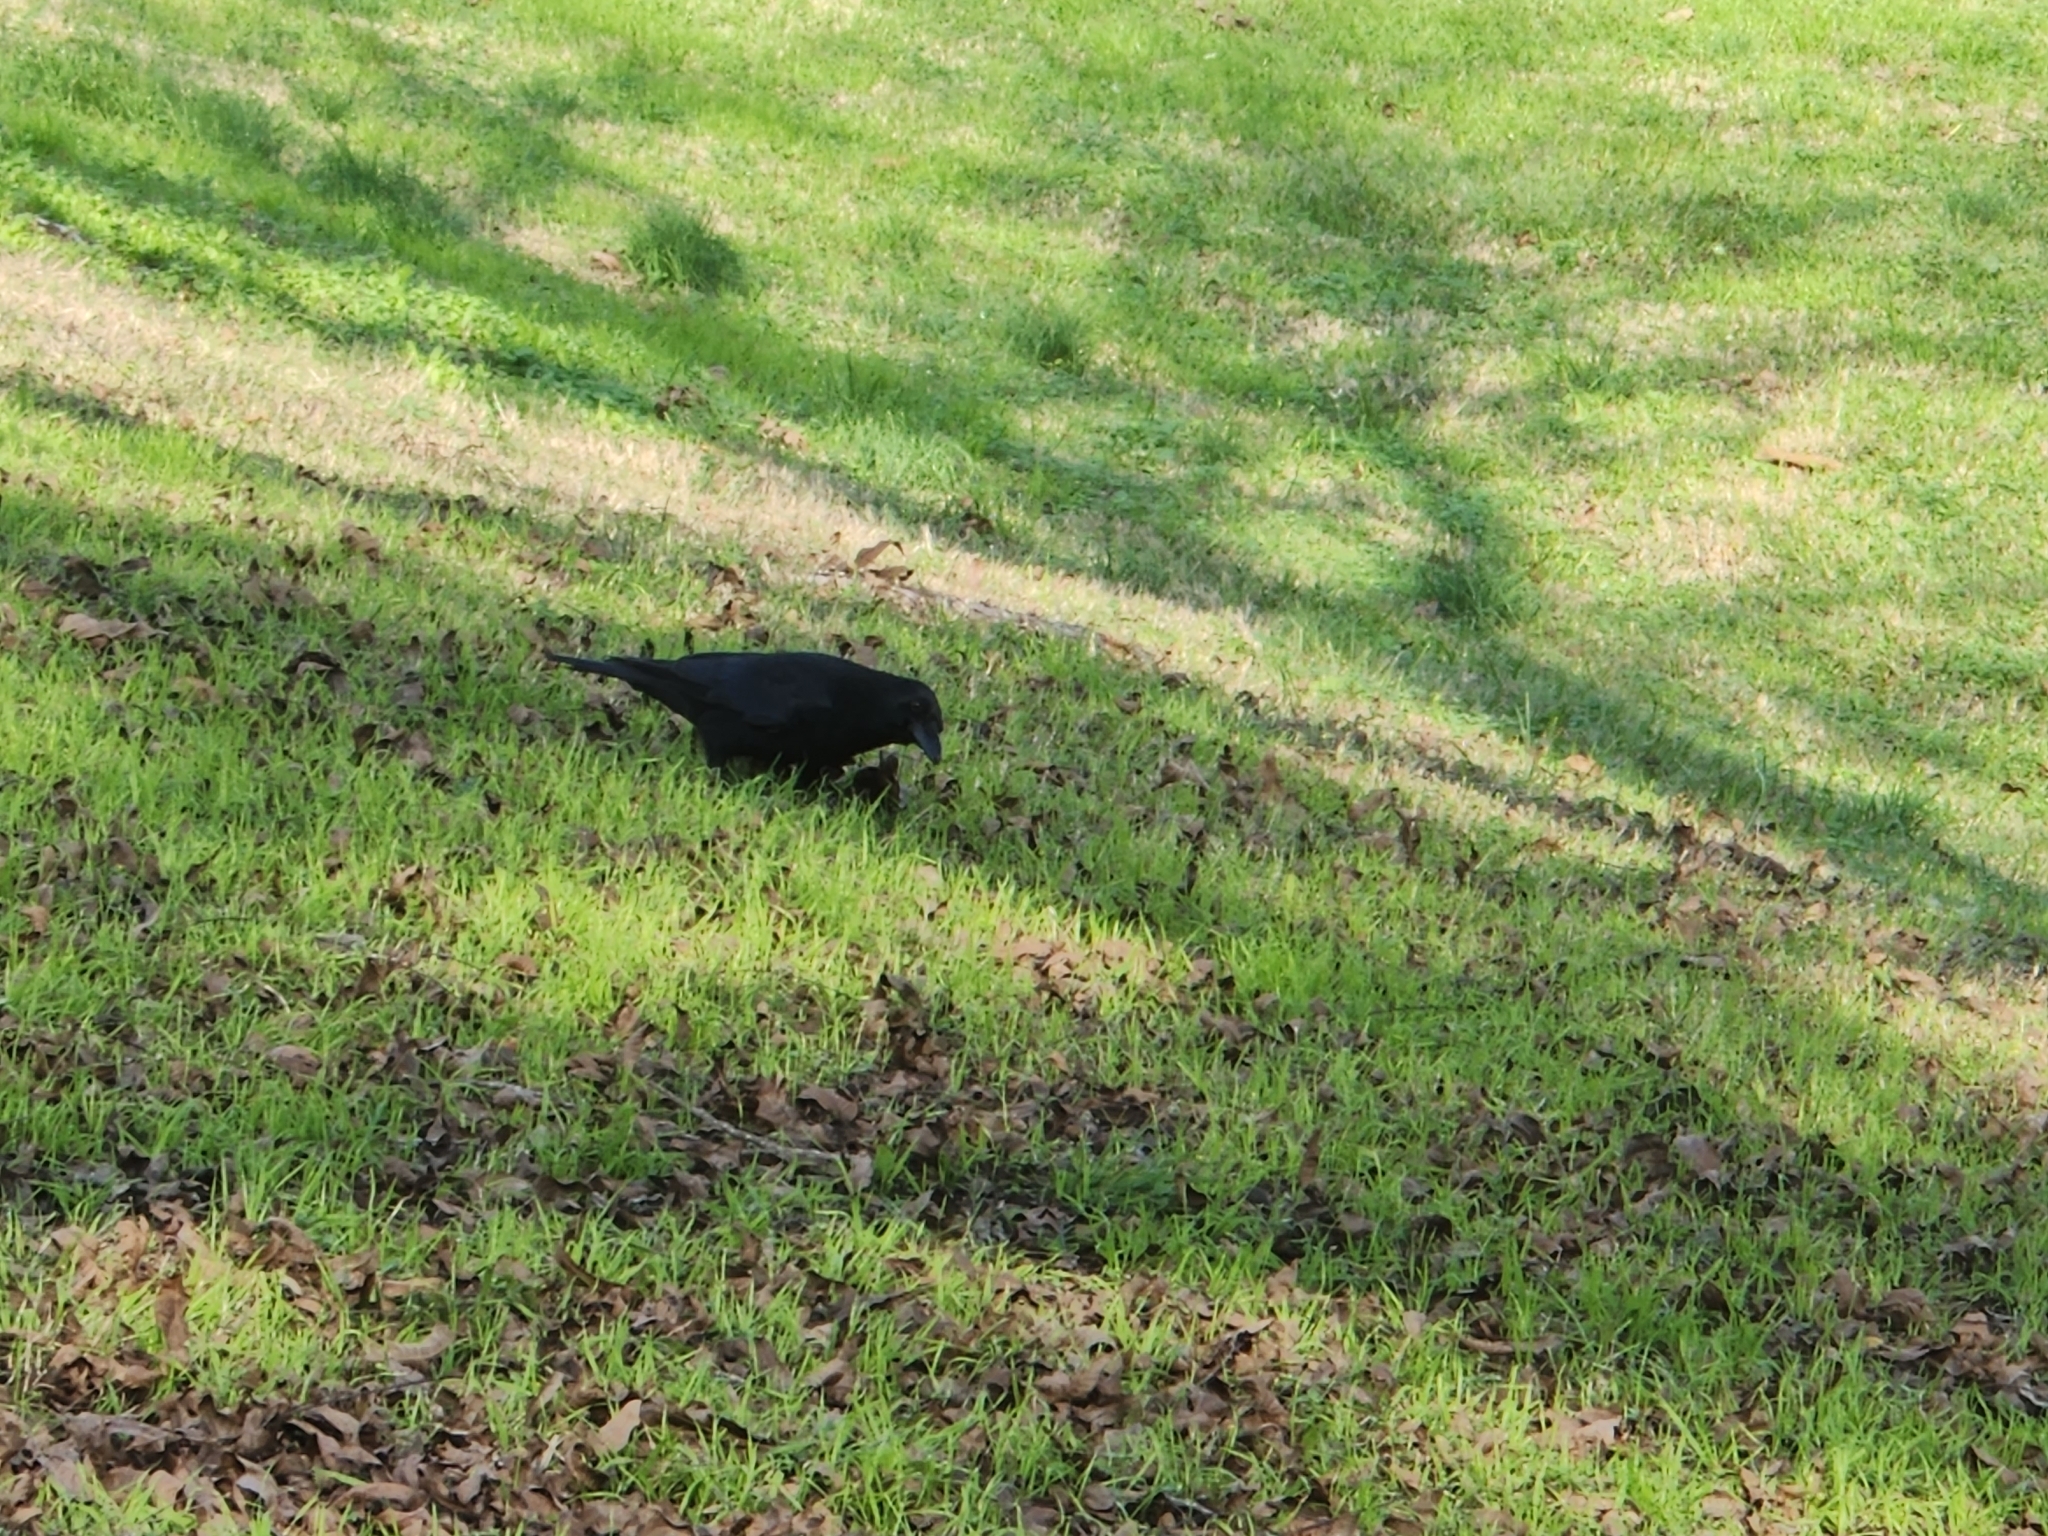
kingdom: Animalia
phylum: Chordata
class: Aves
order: Passeriformes
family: Corvidae
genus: Corvus
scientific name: Corvus brachyrhynchos
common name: American crow
